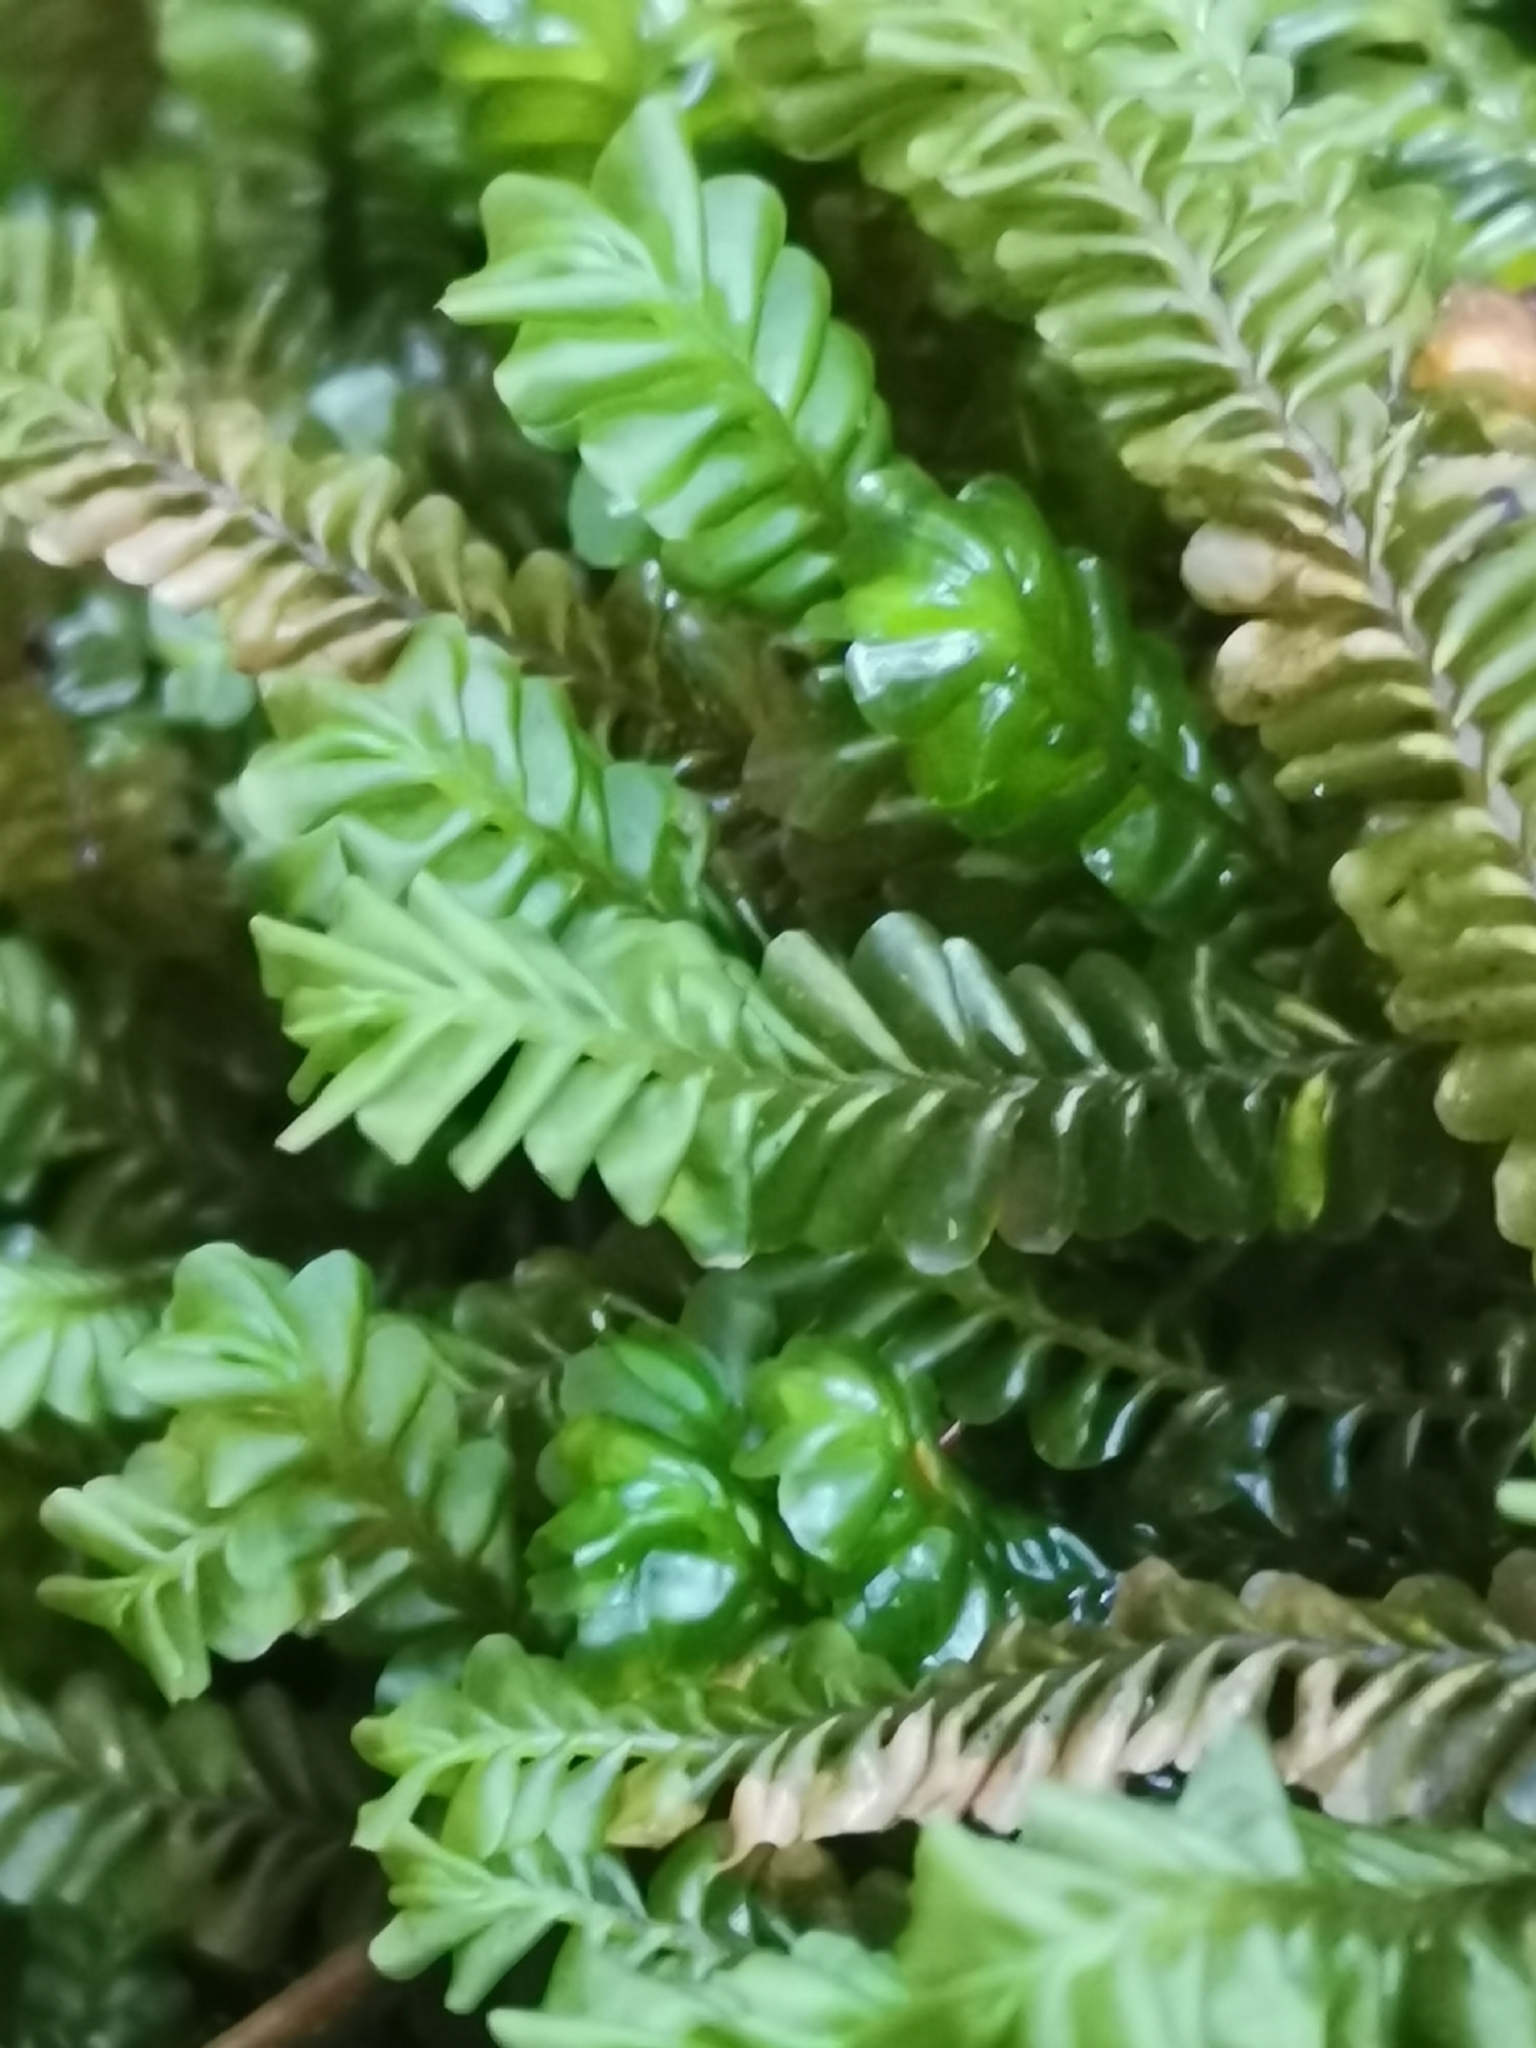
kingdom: Plantae
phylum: Marchantiophyta
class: Jungermanniopsida
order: Jungermanniales
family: Plagiochilaceae
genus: Plagiochila
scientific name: Plagiochila asplenioides
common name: Greater featherwort
